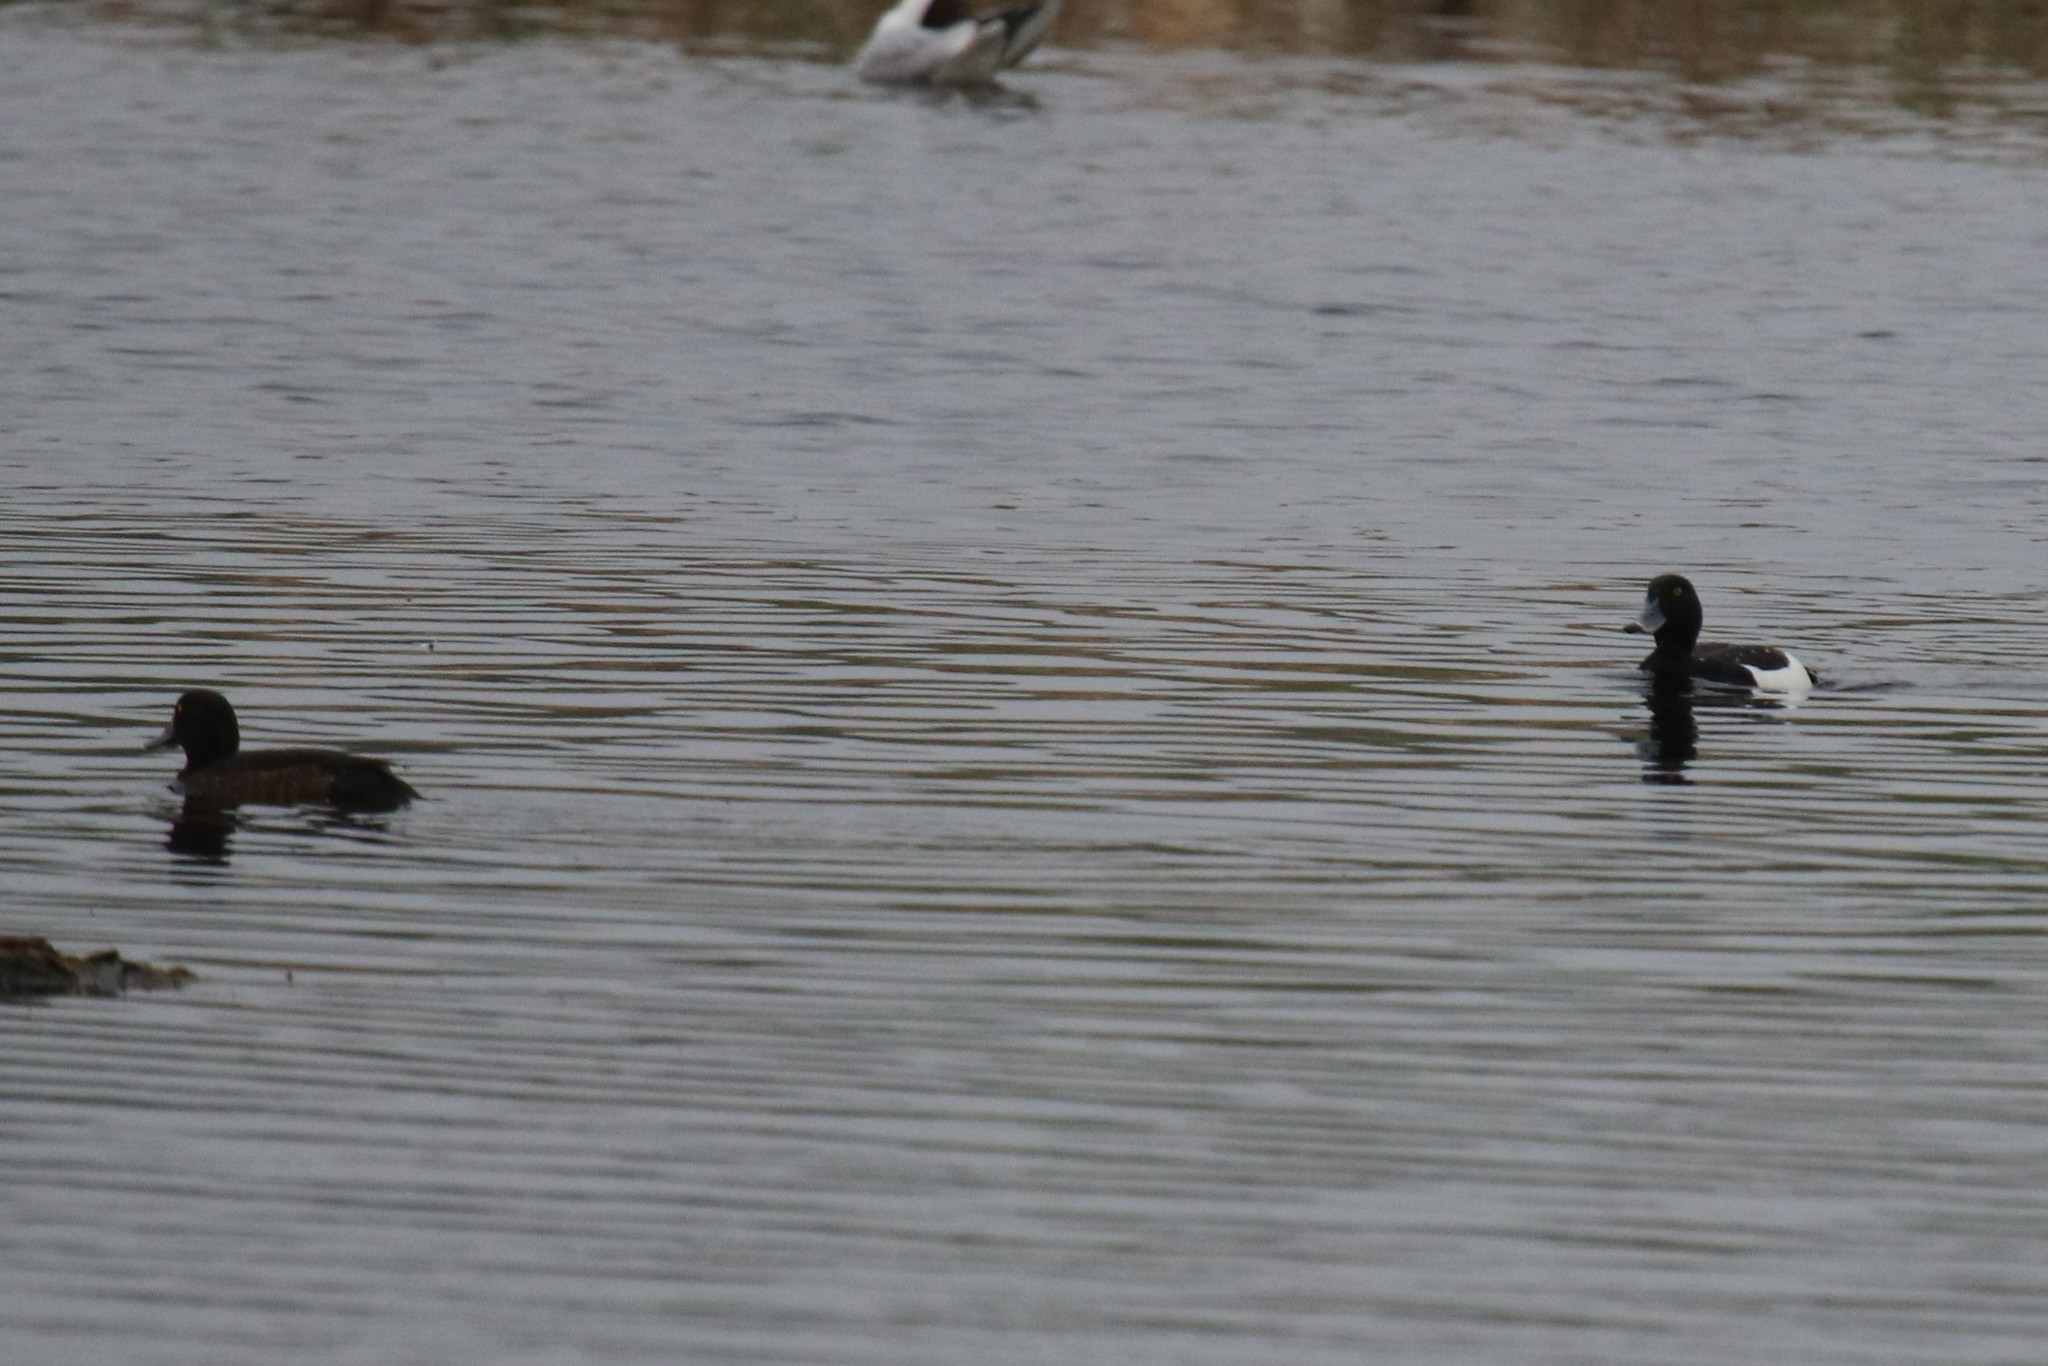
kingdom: Animalia
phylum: Chordata
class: Aves
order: Anseriformes
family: Anatidae
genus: Aythya
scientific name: Aythya fuligula
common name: Tufted duck
